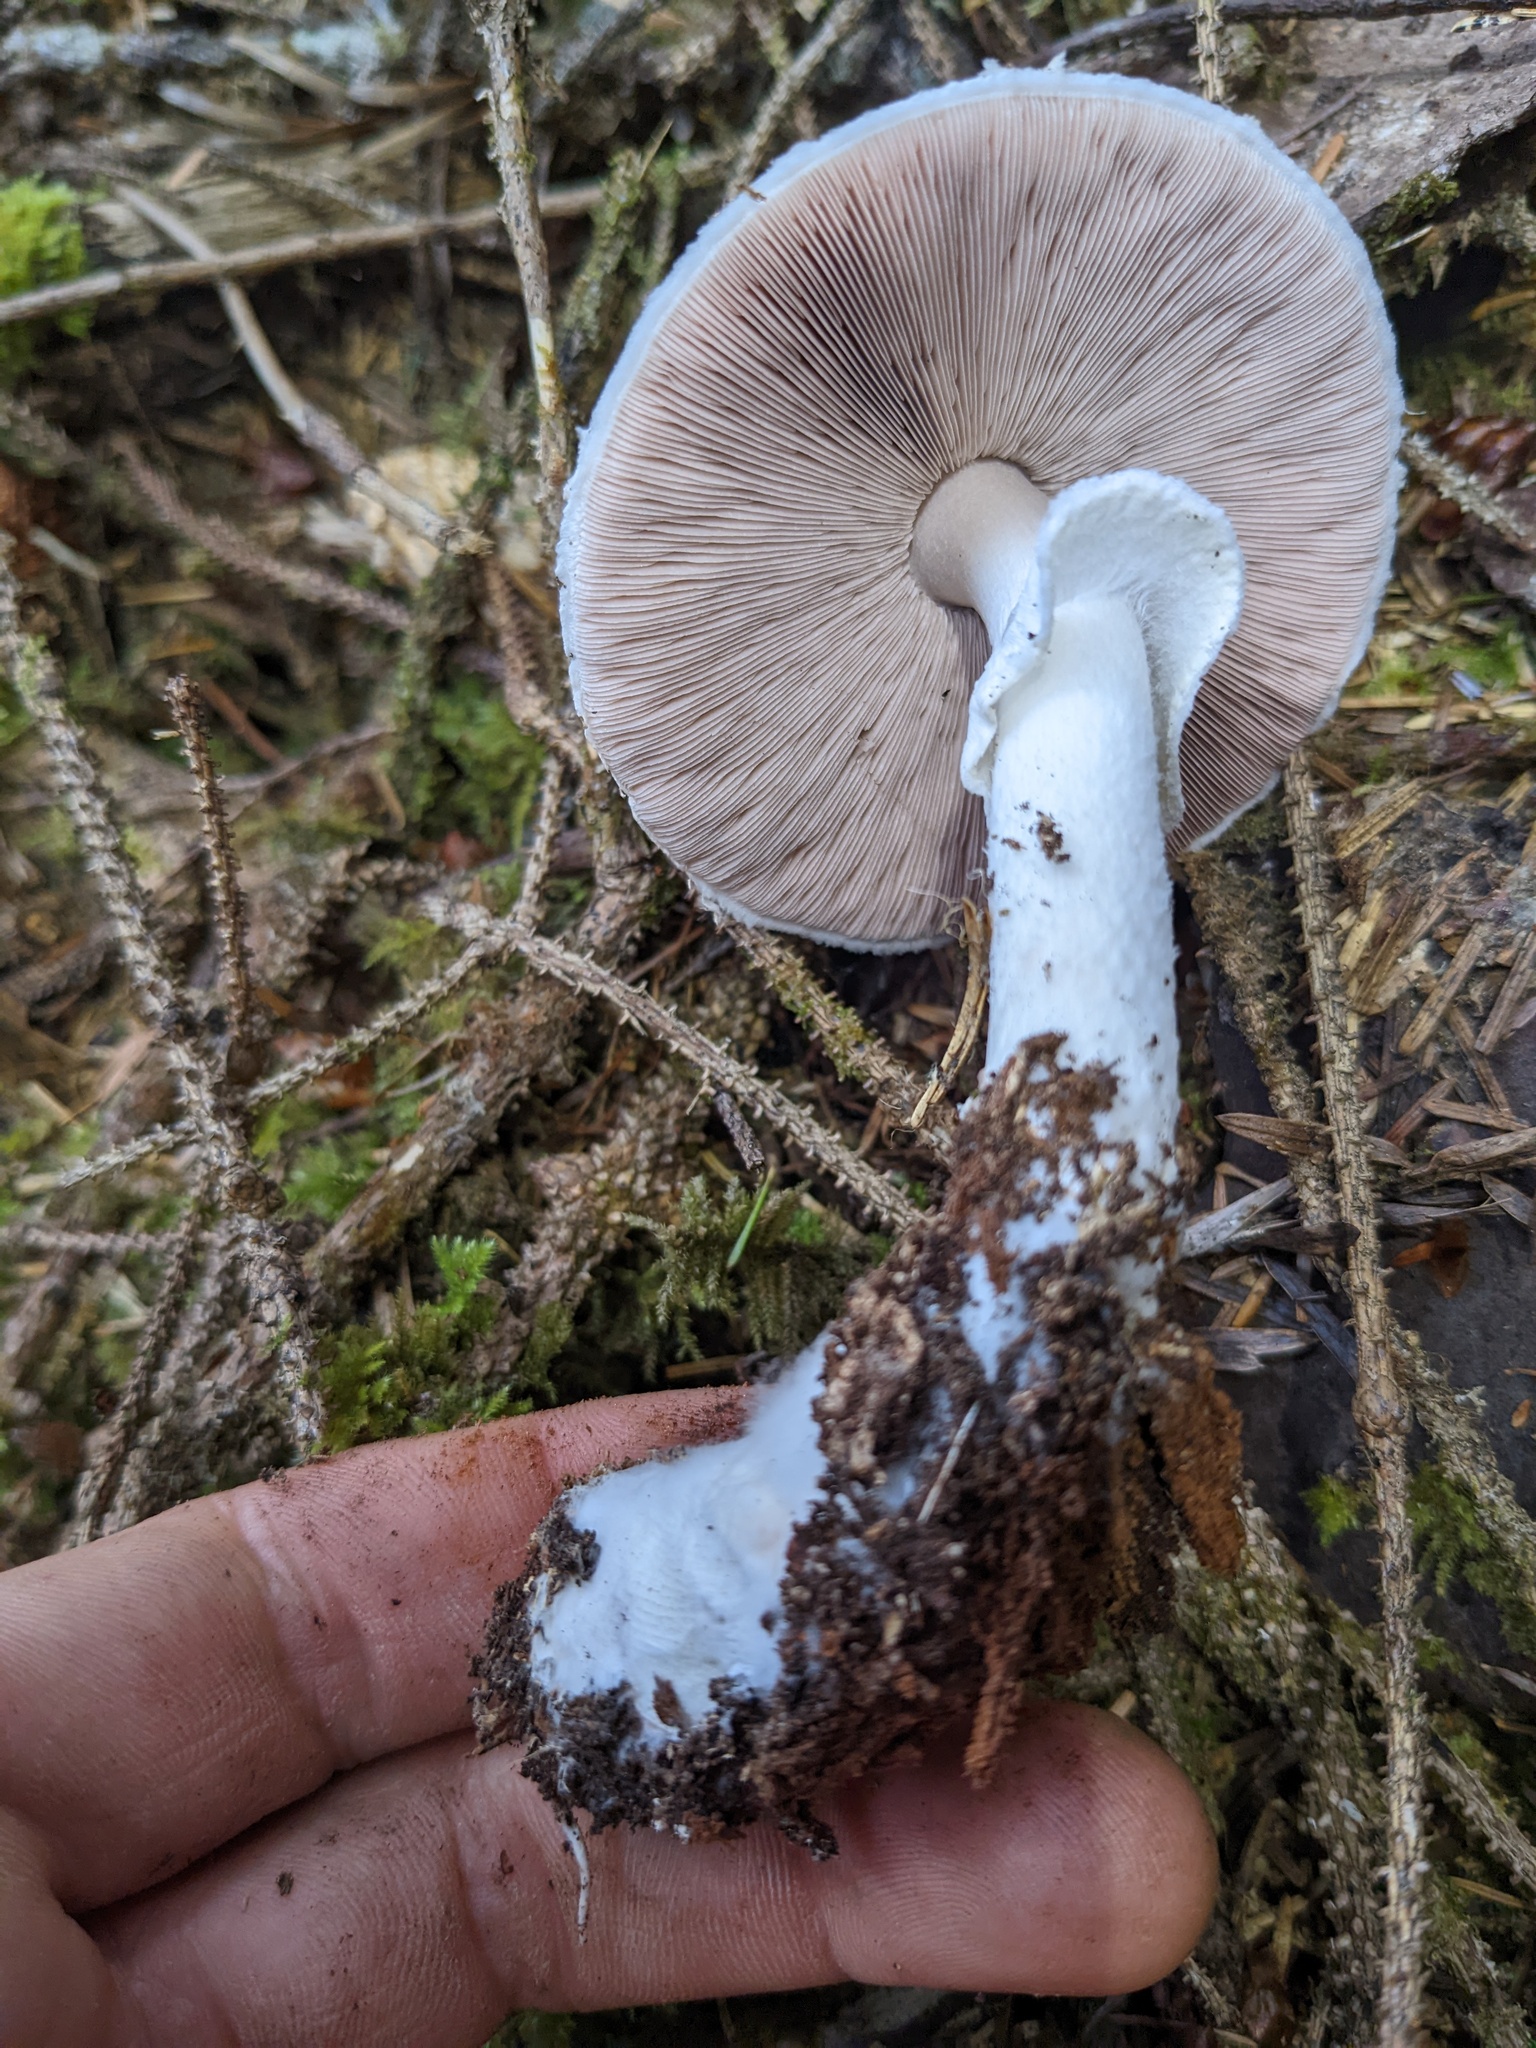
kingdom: Fungi
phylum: Basidiomycota
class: Agaricomycetes
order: Agaricales
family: Agaricaceae
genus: Agaricus
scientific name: Agaricus subrutilescens
